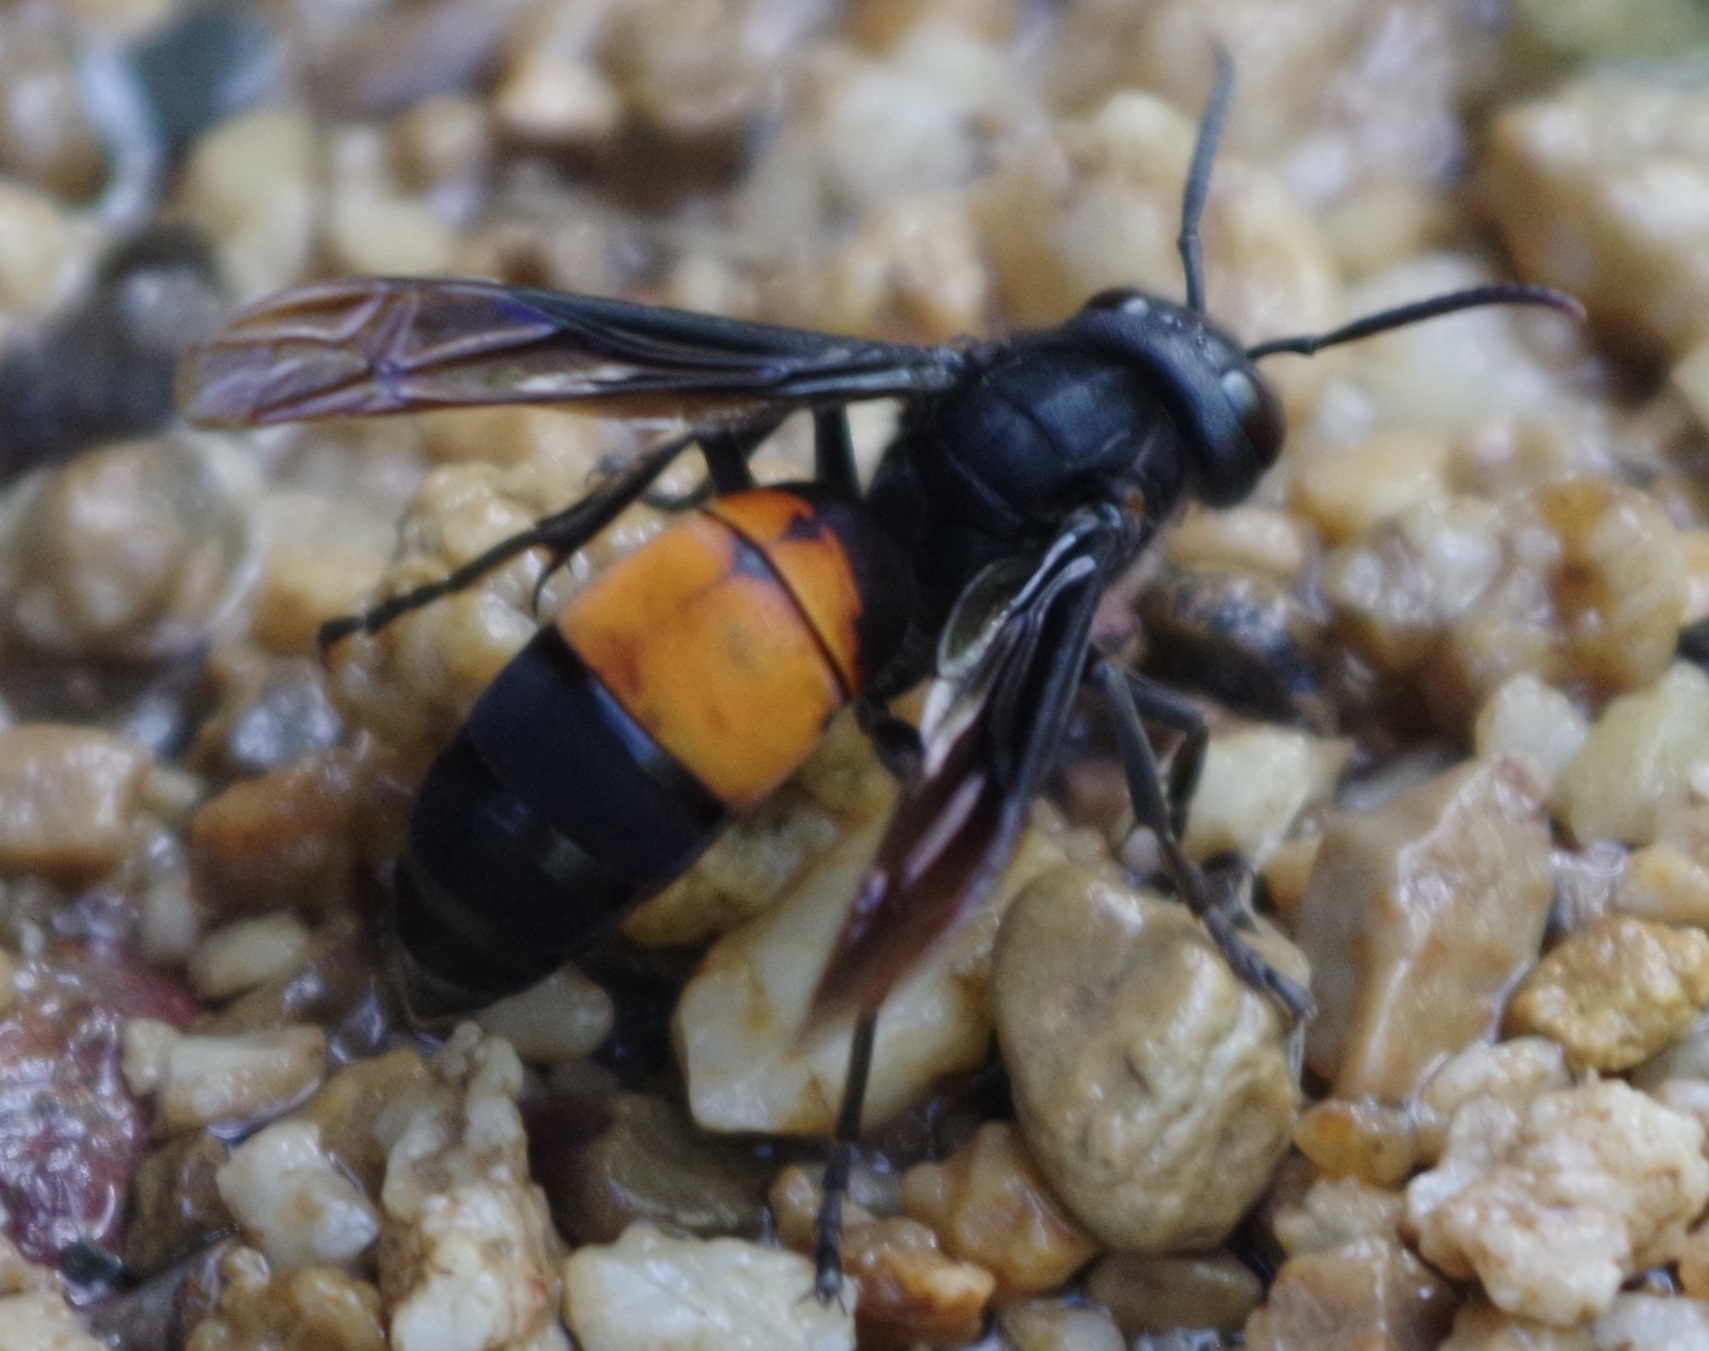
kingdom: Animalia
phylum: Arthropoda
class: Insecta
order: Hymenoptera
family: Vespidae
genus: Vespa
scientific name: Vespa affinis
